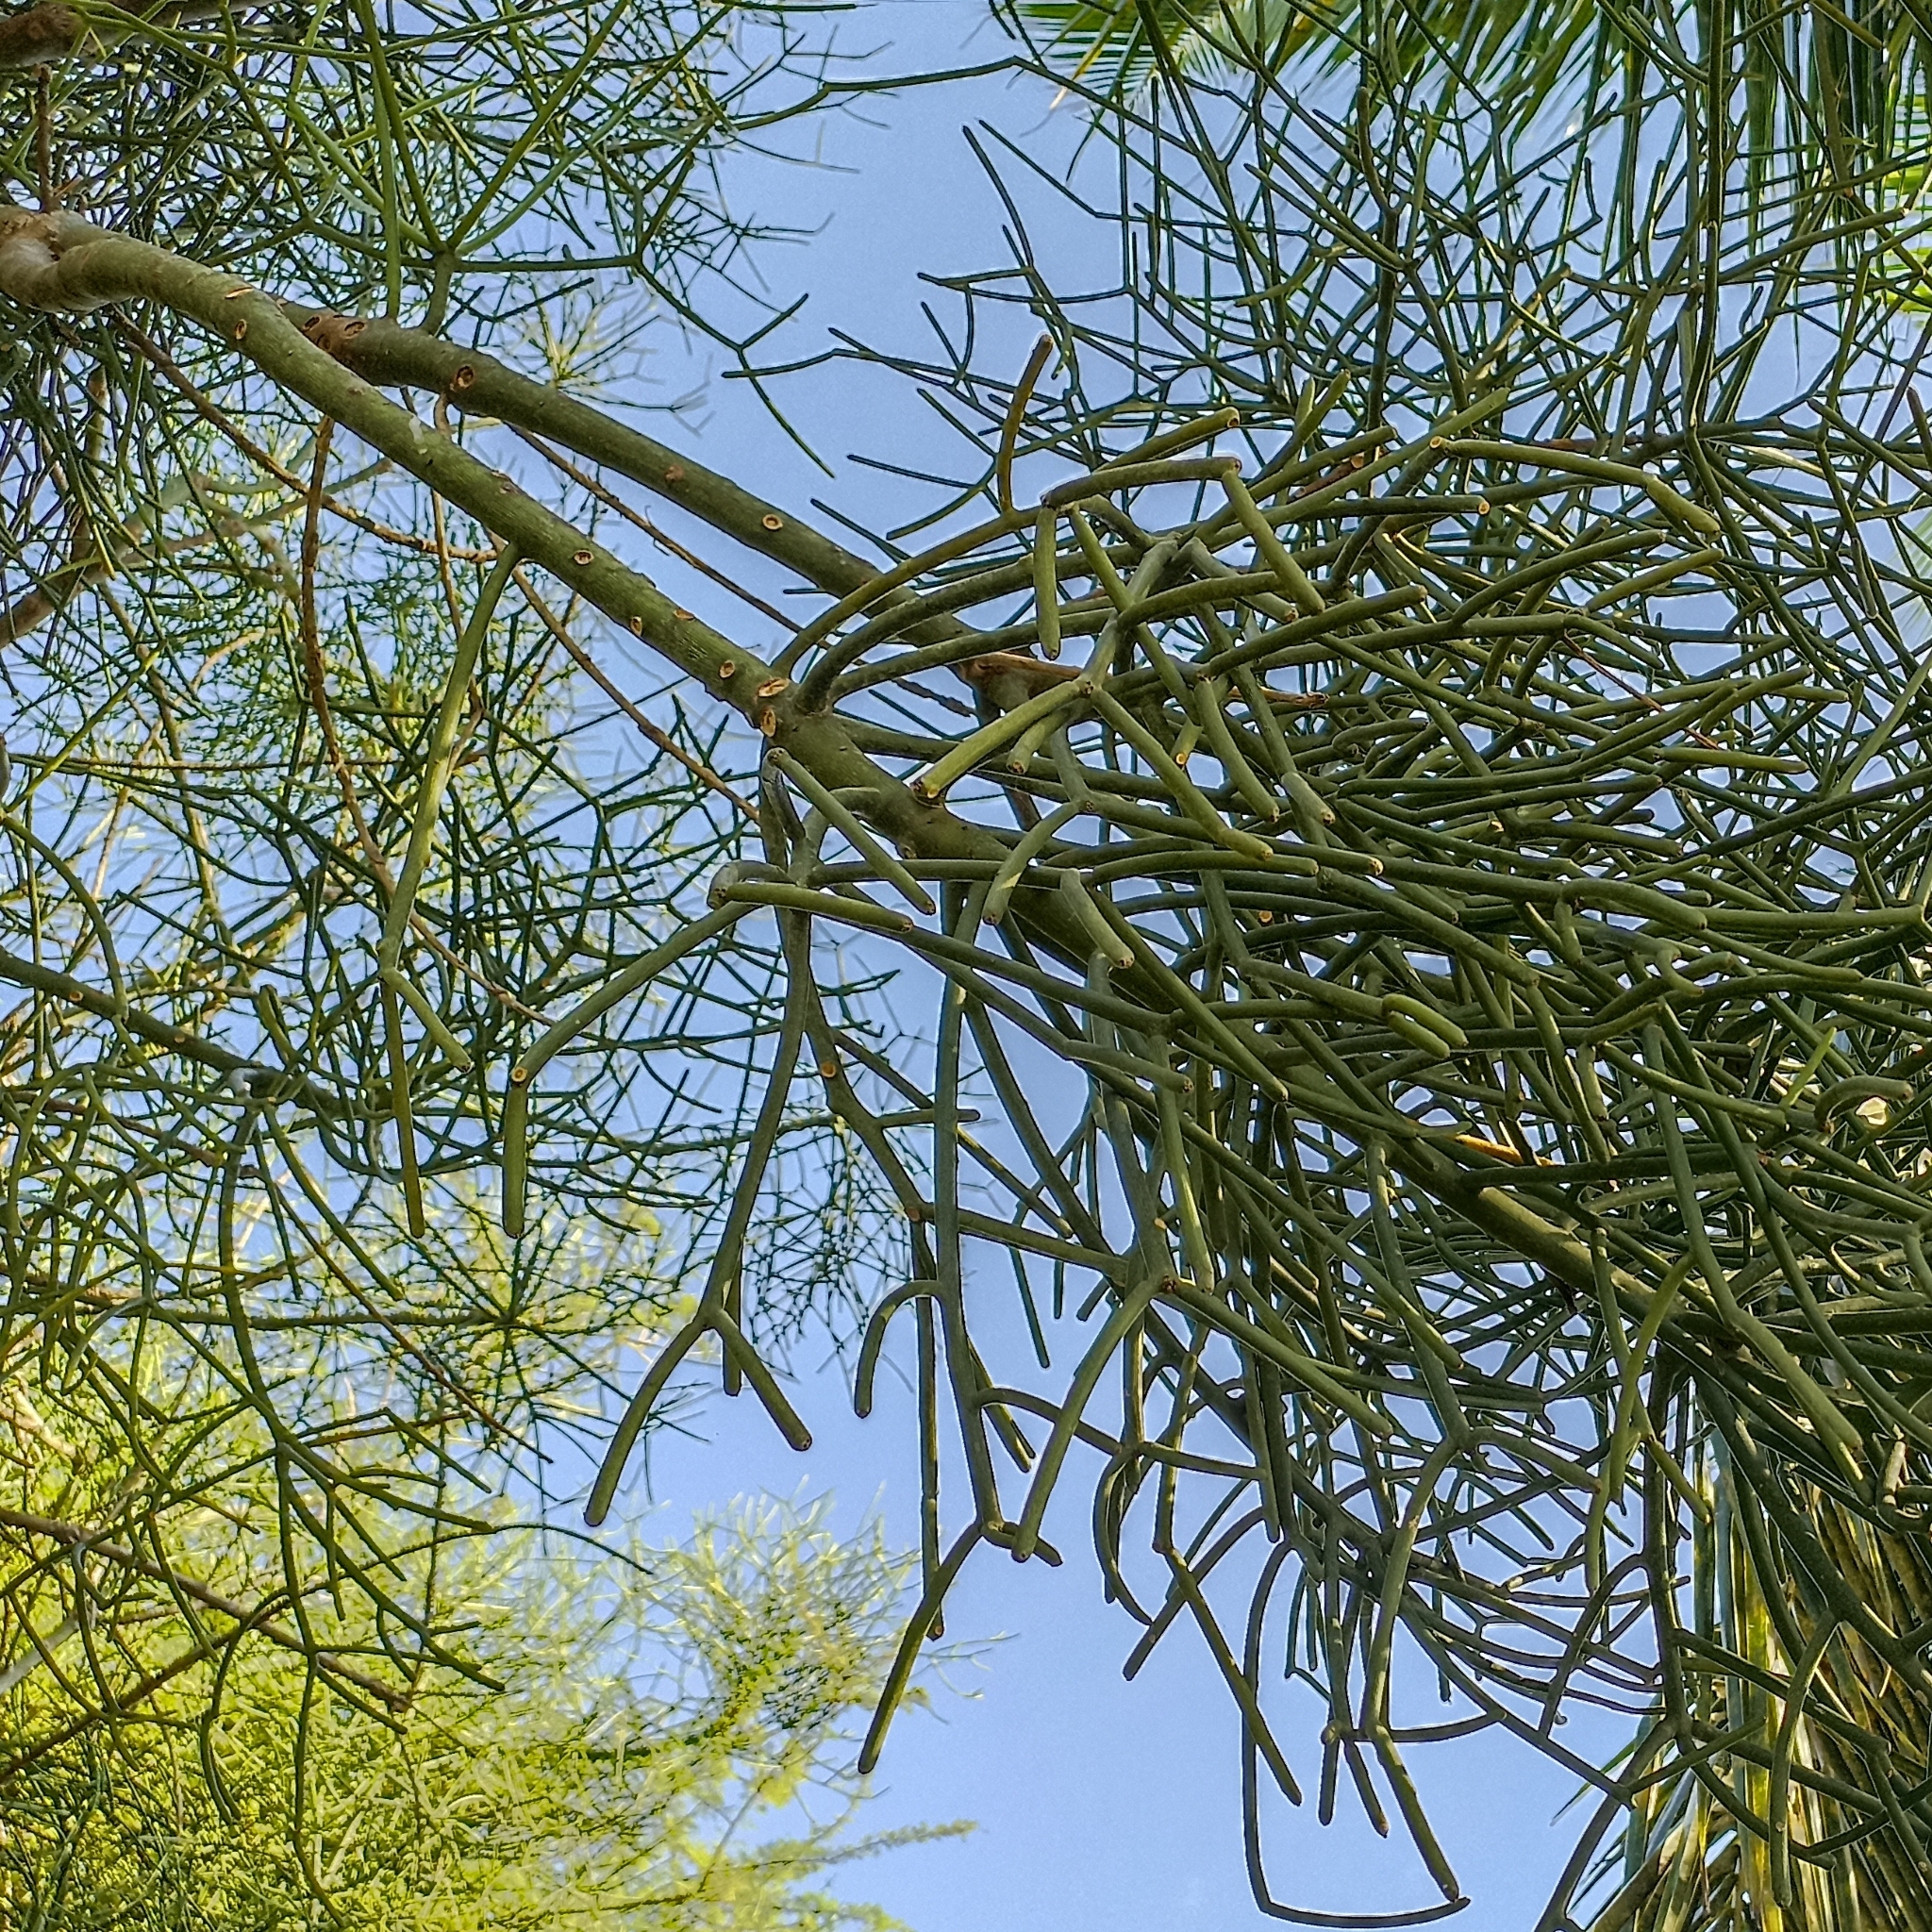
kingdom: Plantae
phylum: Tracheophyta
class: Magnoliopsida
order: Malpighiales
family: Euphorbiaceae
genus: Euphorbia
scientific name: Euphorbia tirucalli
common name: Indiantree spurge
